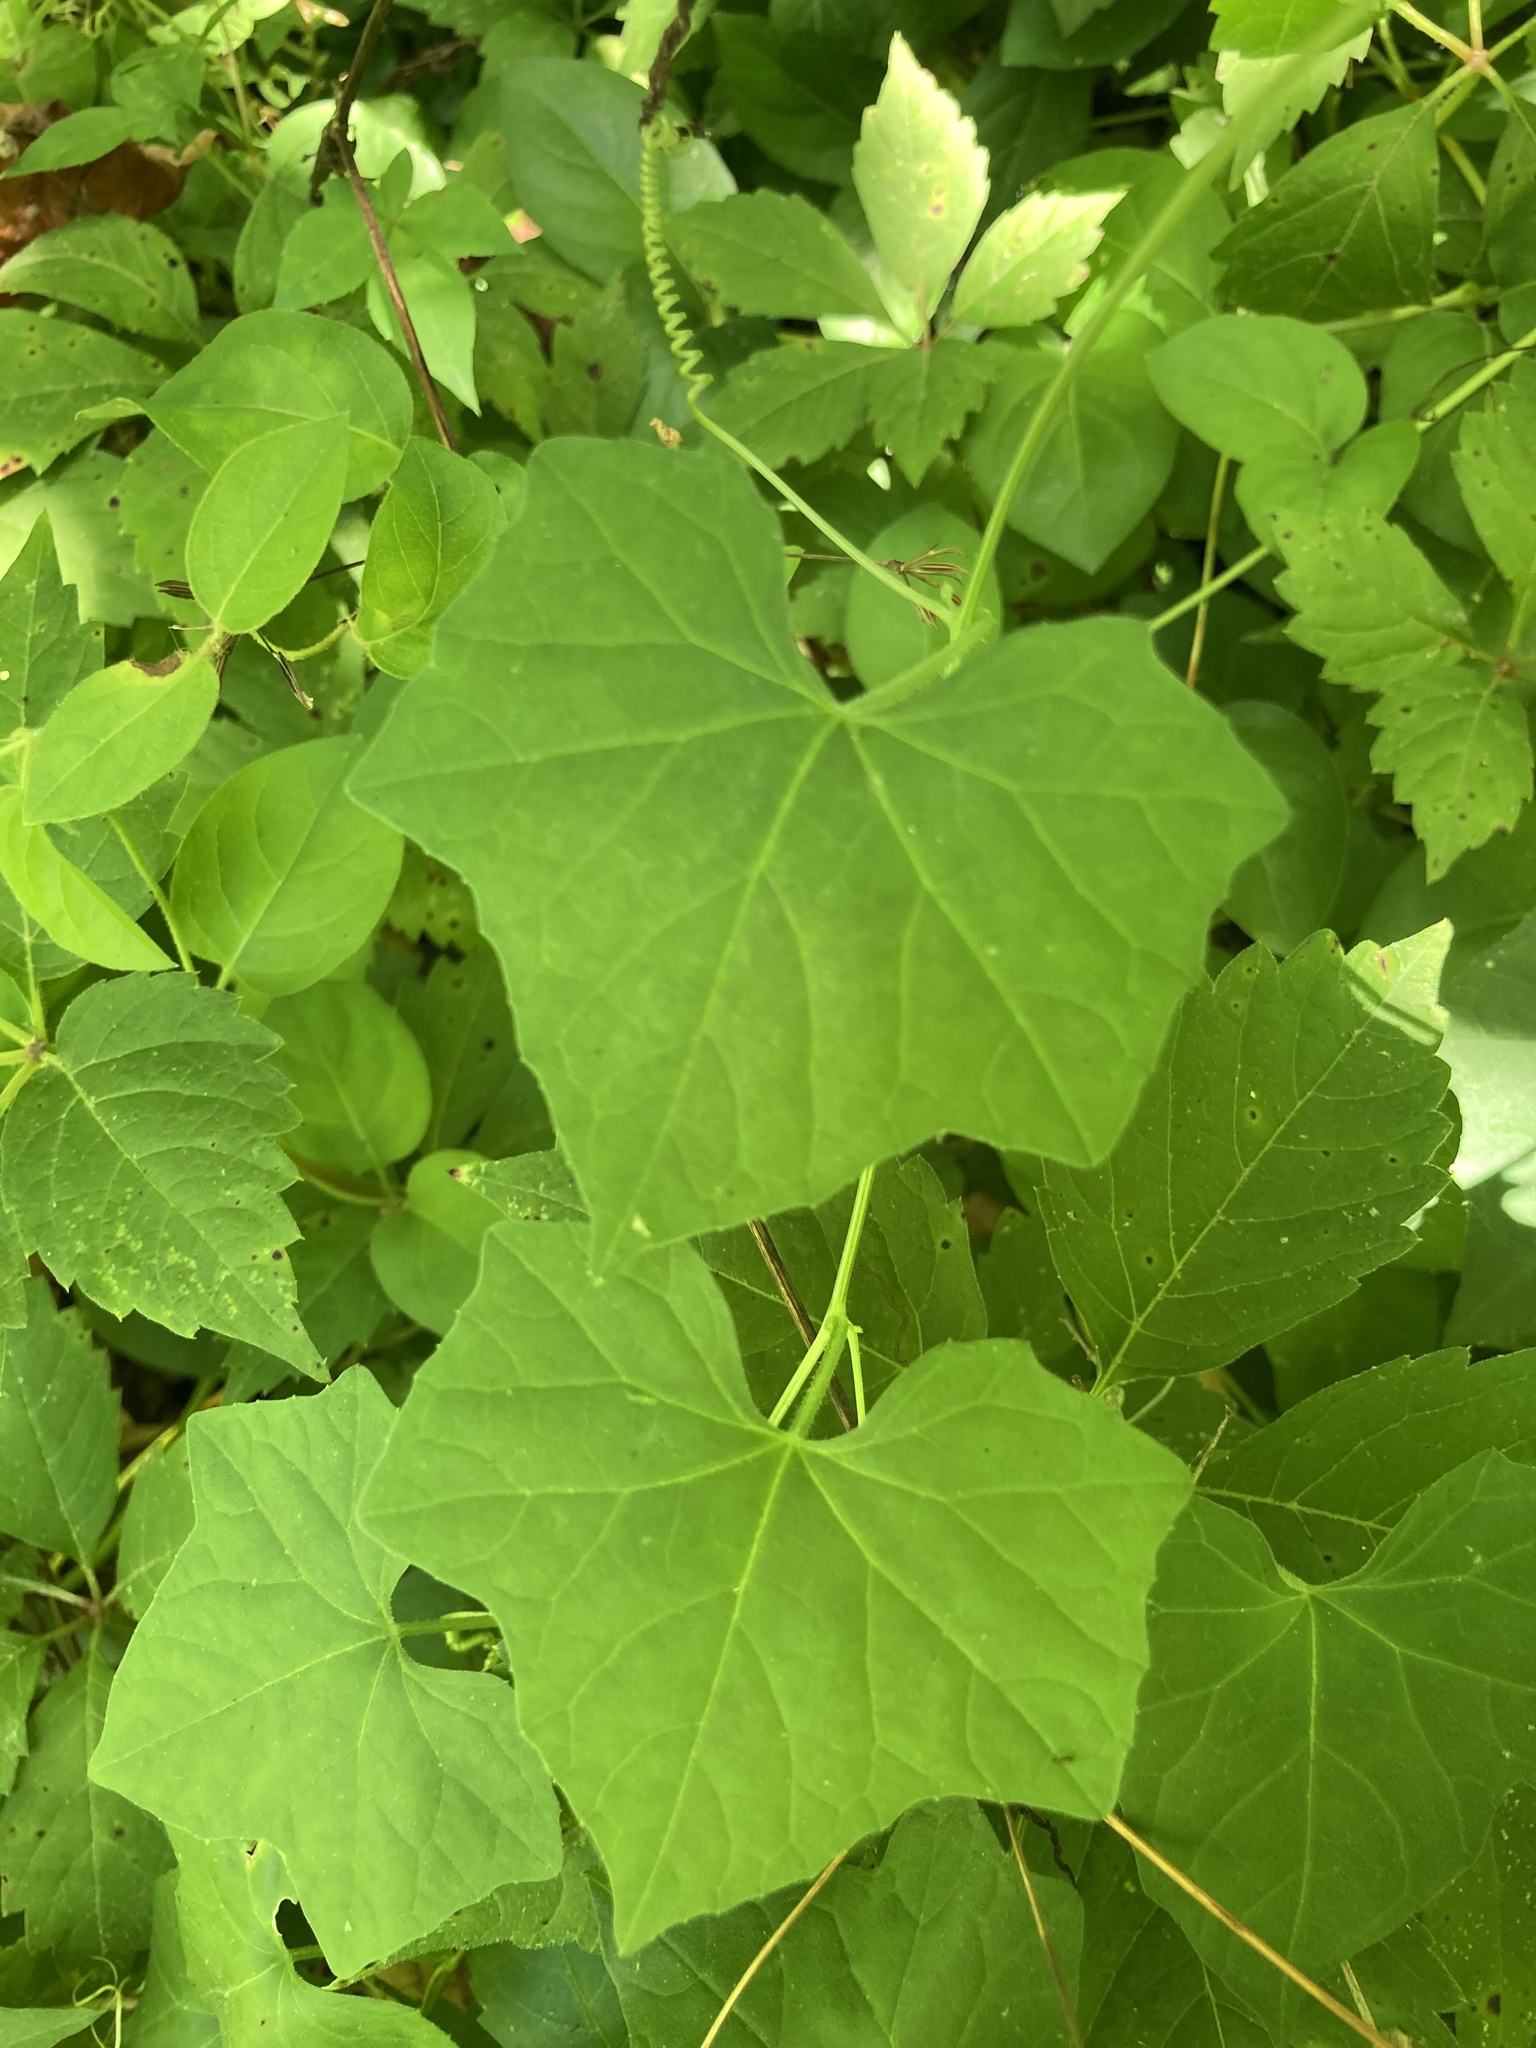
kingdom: Plantae
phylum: Tracheophyta
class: Magnoliopsida
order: Cucurbitales
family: Cucurbitaceae
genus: Melothria
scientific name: Melothria pendula
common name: Creeping-cucumber
